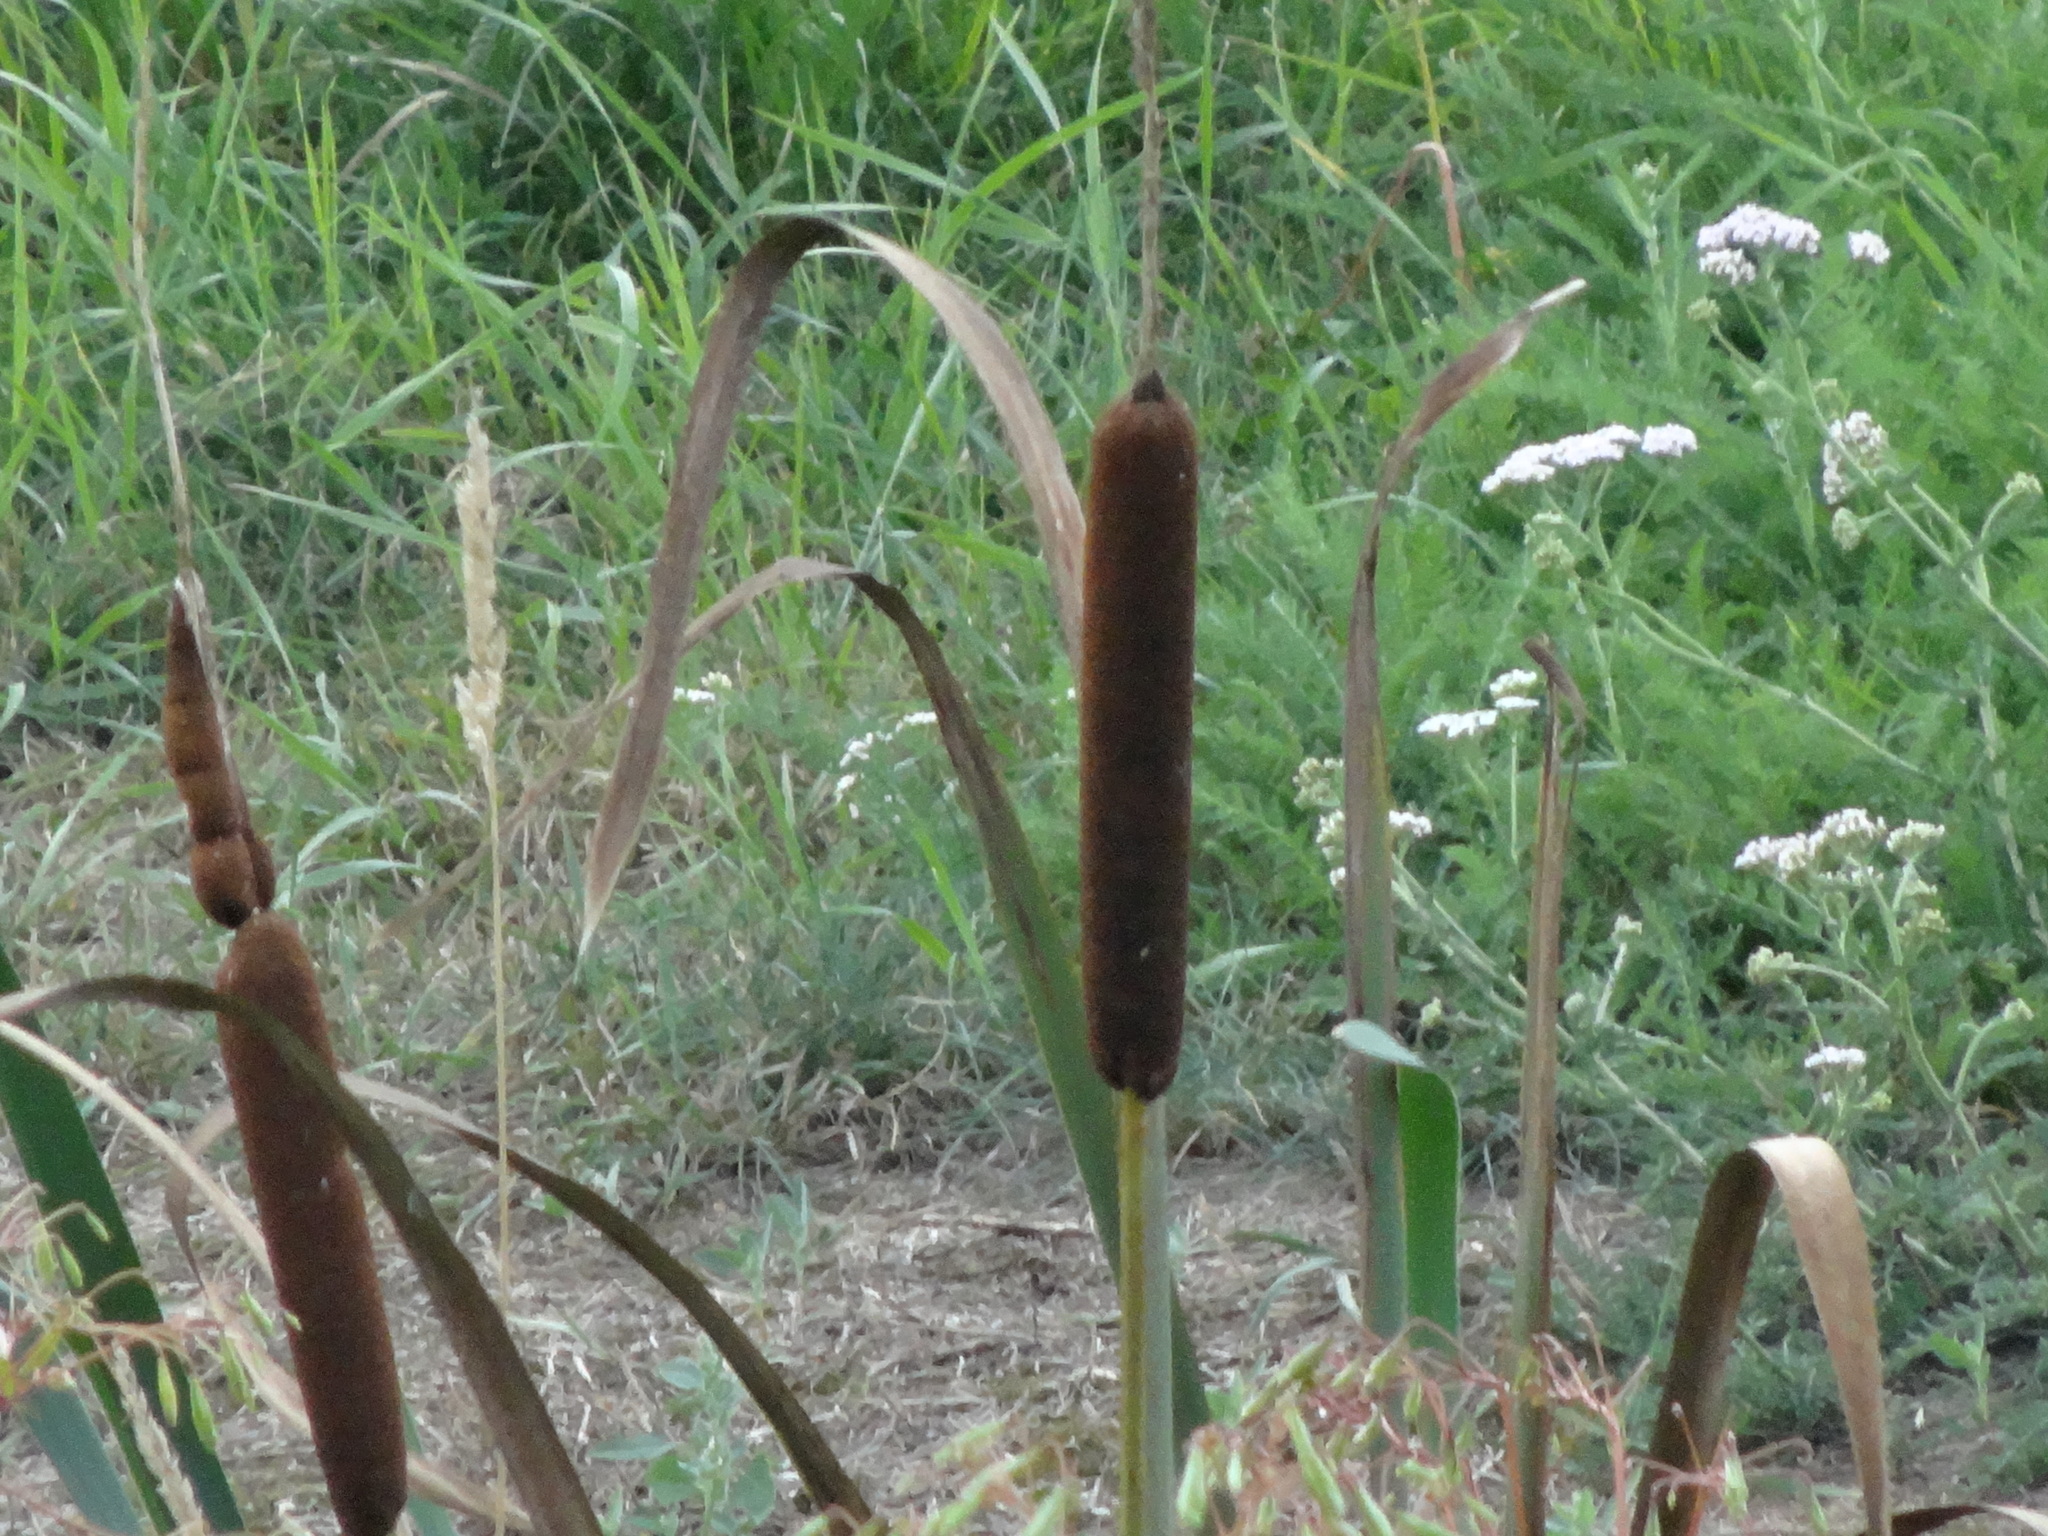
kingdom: Plantae
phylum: Tracheophyta
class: Liliopsida
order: Poales
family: Typhaceae
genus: Typha
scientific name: Typha latifolia
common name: Broadleaf cattail
